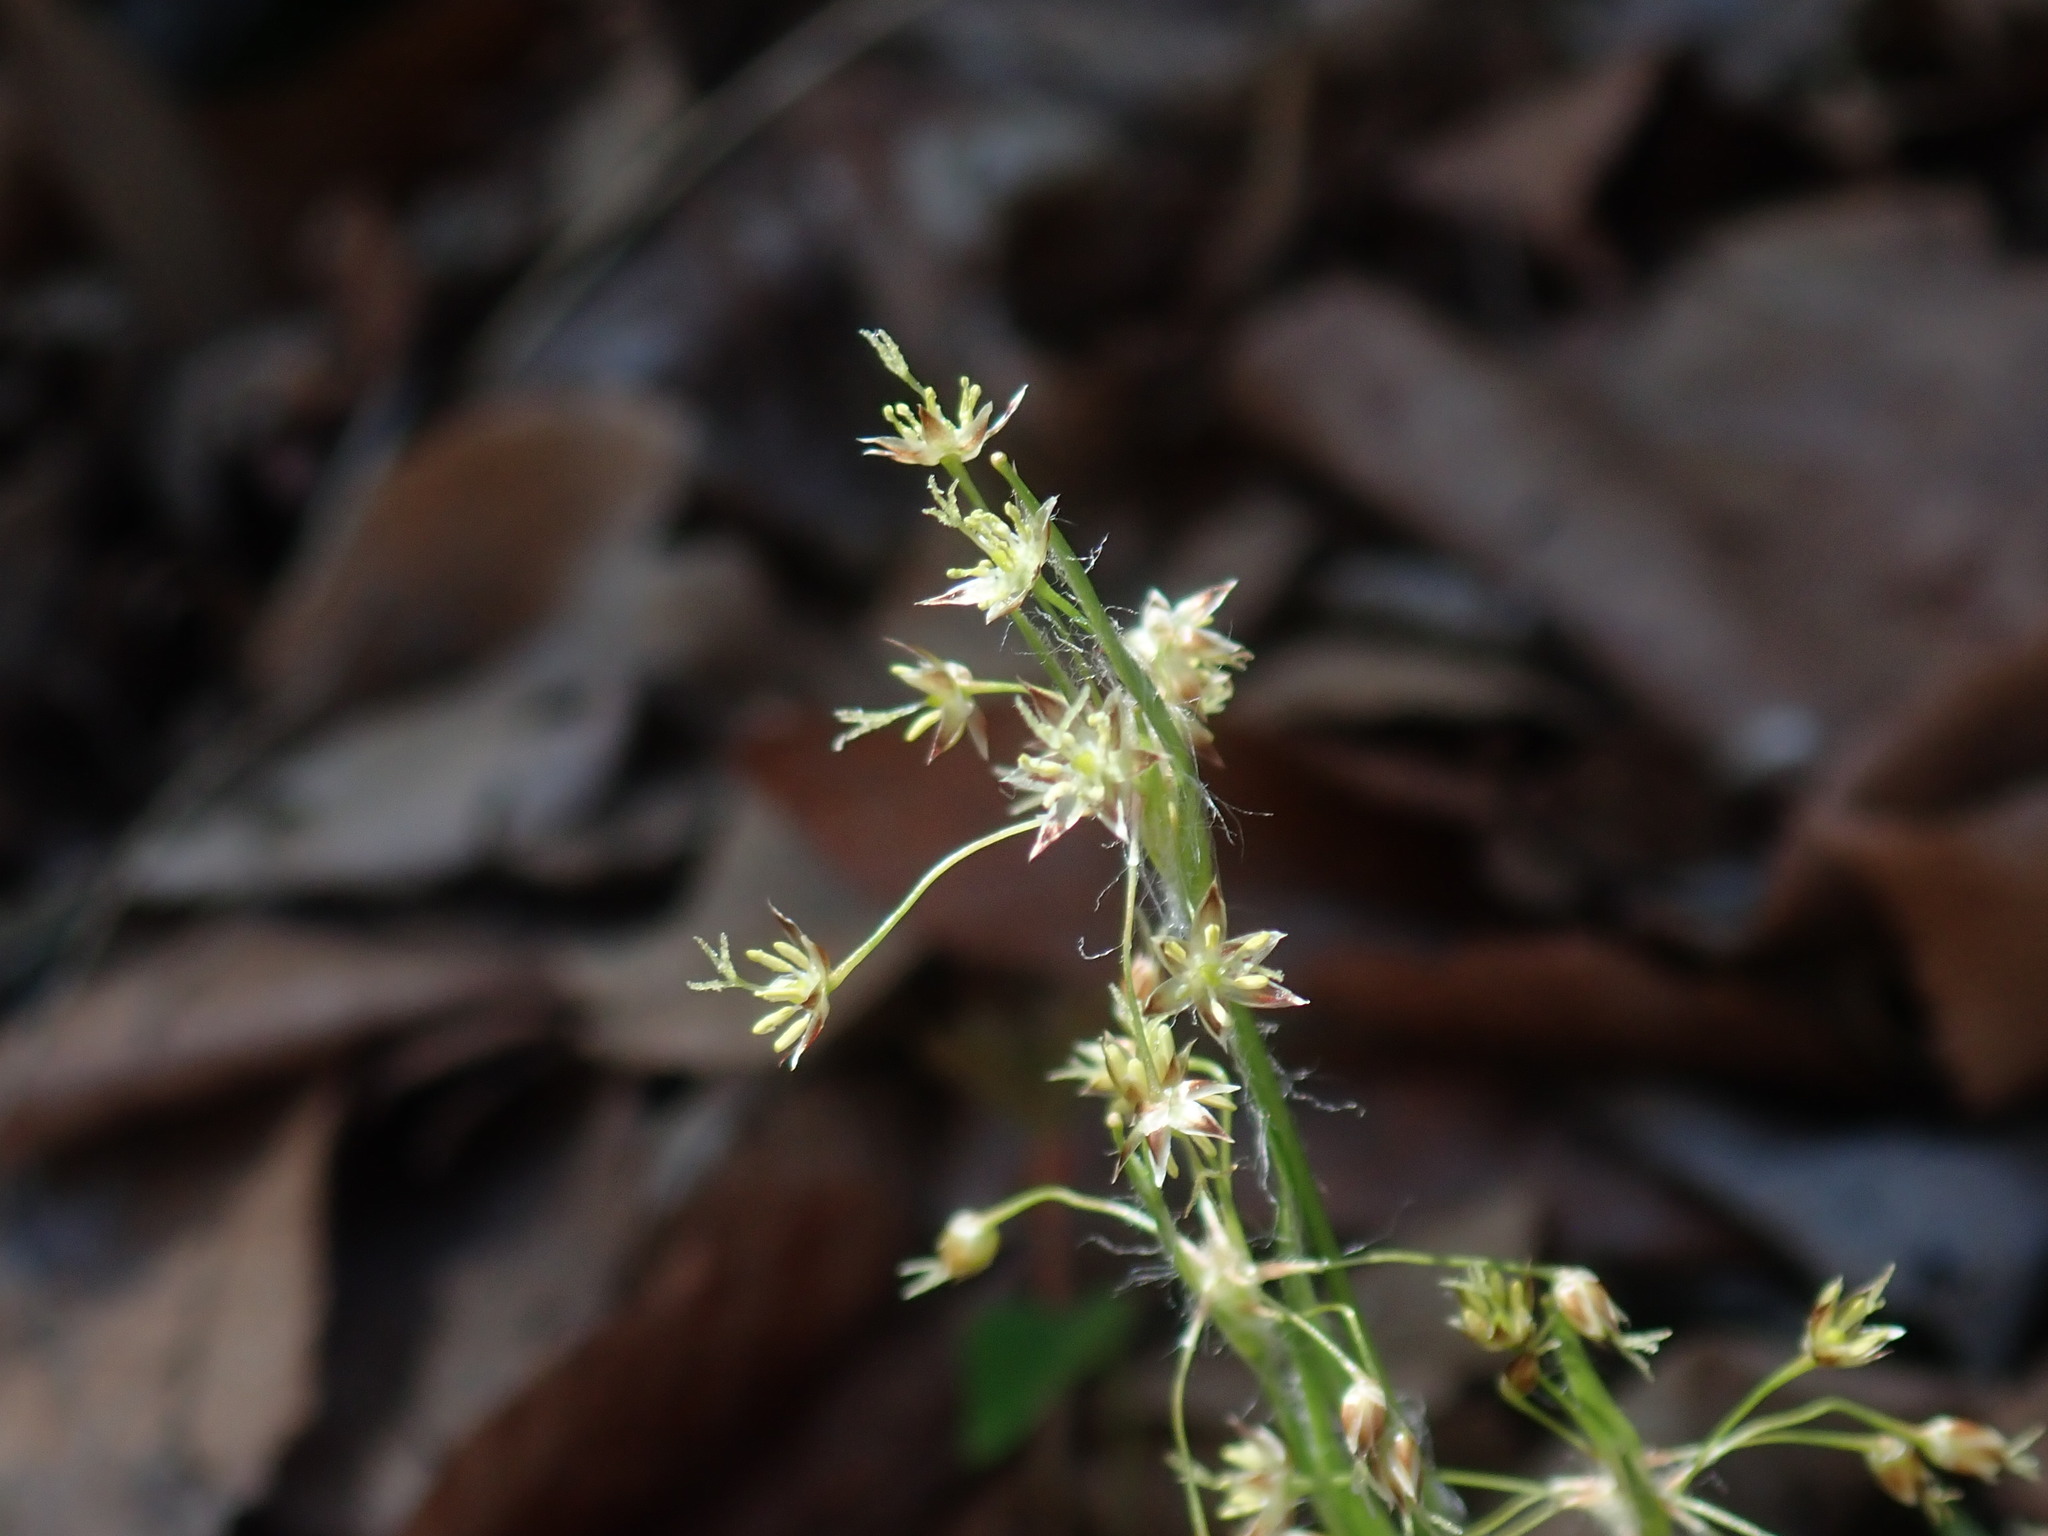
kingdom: Plantae
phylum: Tracheophyta
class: Liliopsida
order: Poales
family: Juncaceae
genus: Luzula
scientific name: Luzula acuminata
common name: Hairy woodrush
